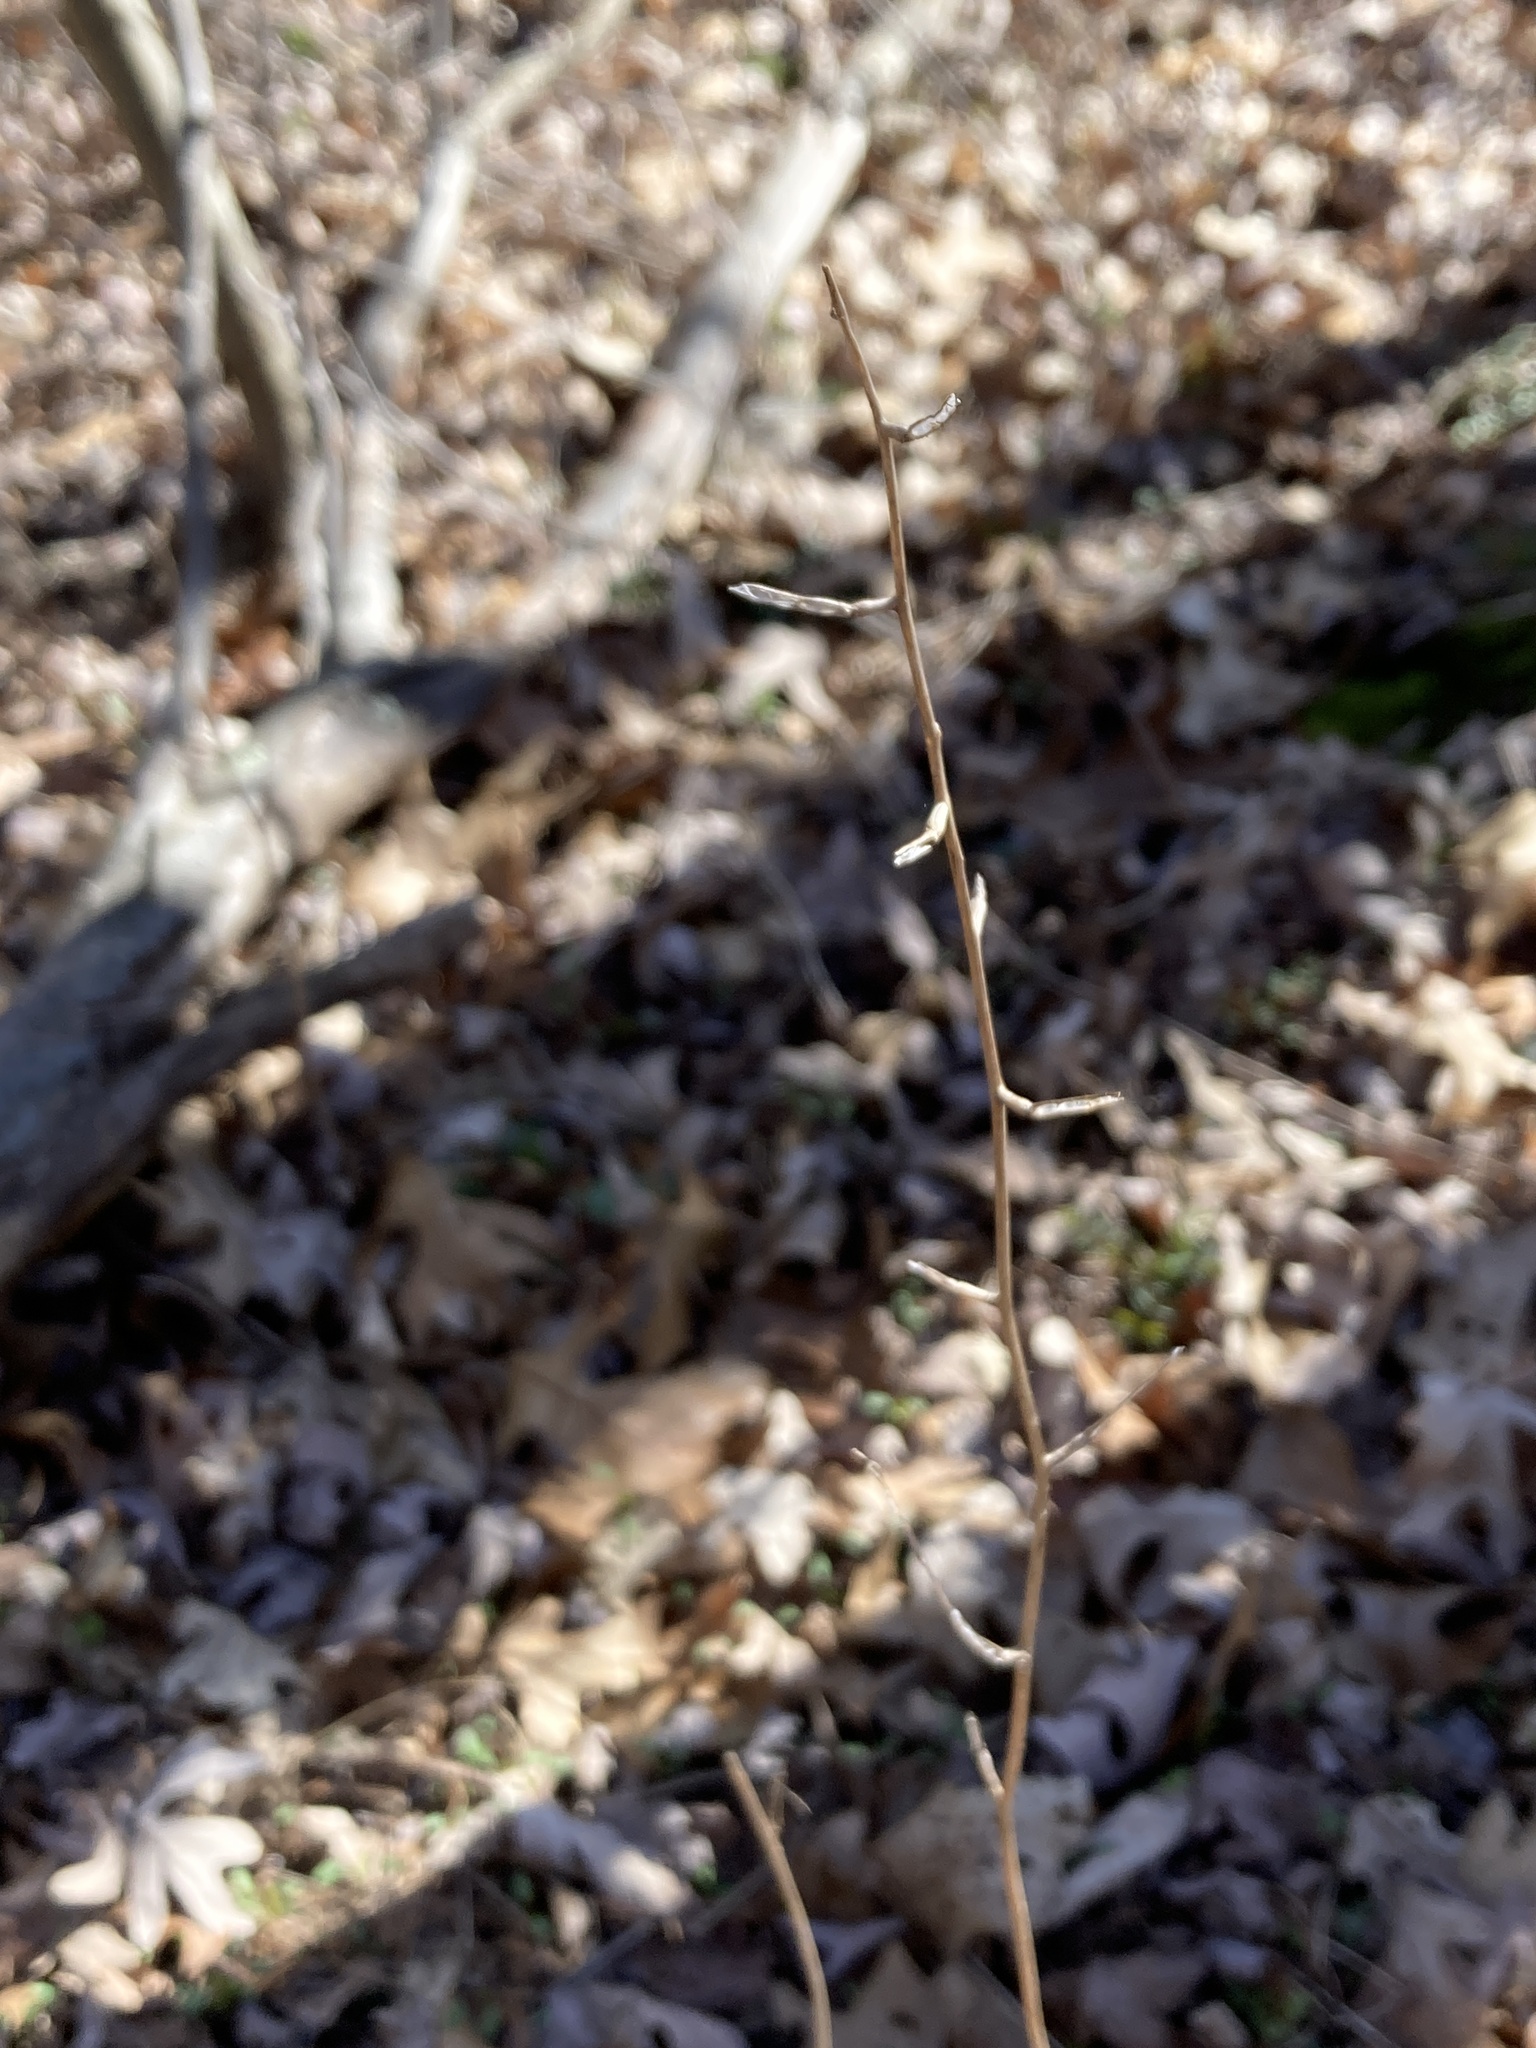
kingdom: Plantae
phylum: Tracheophyta
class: Magnoliopsida
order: Brassicales
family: Brassicaceae
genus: Alliaria
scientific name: Alliaria petiolata
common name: Garlic mustard
